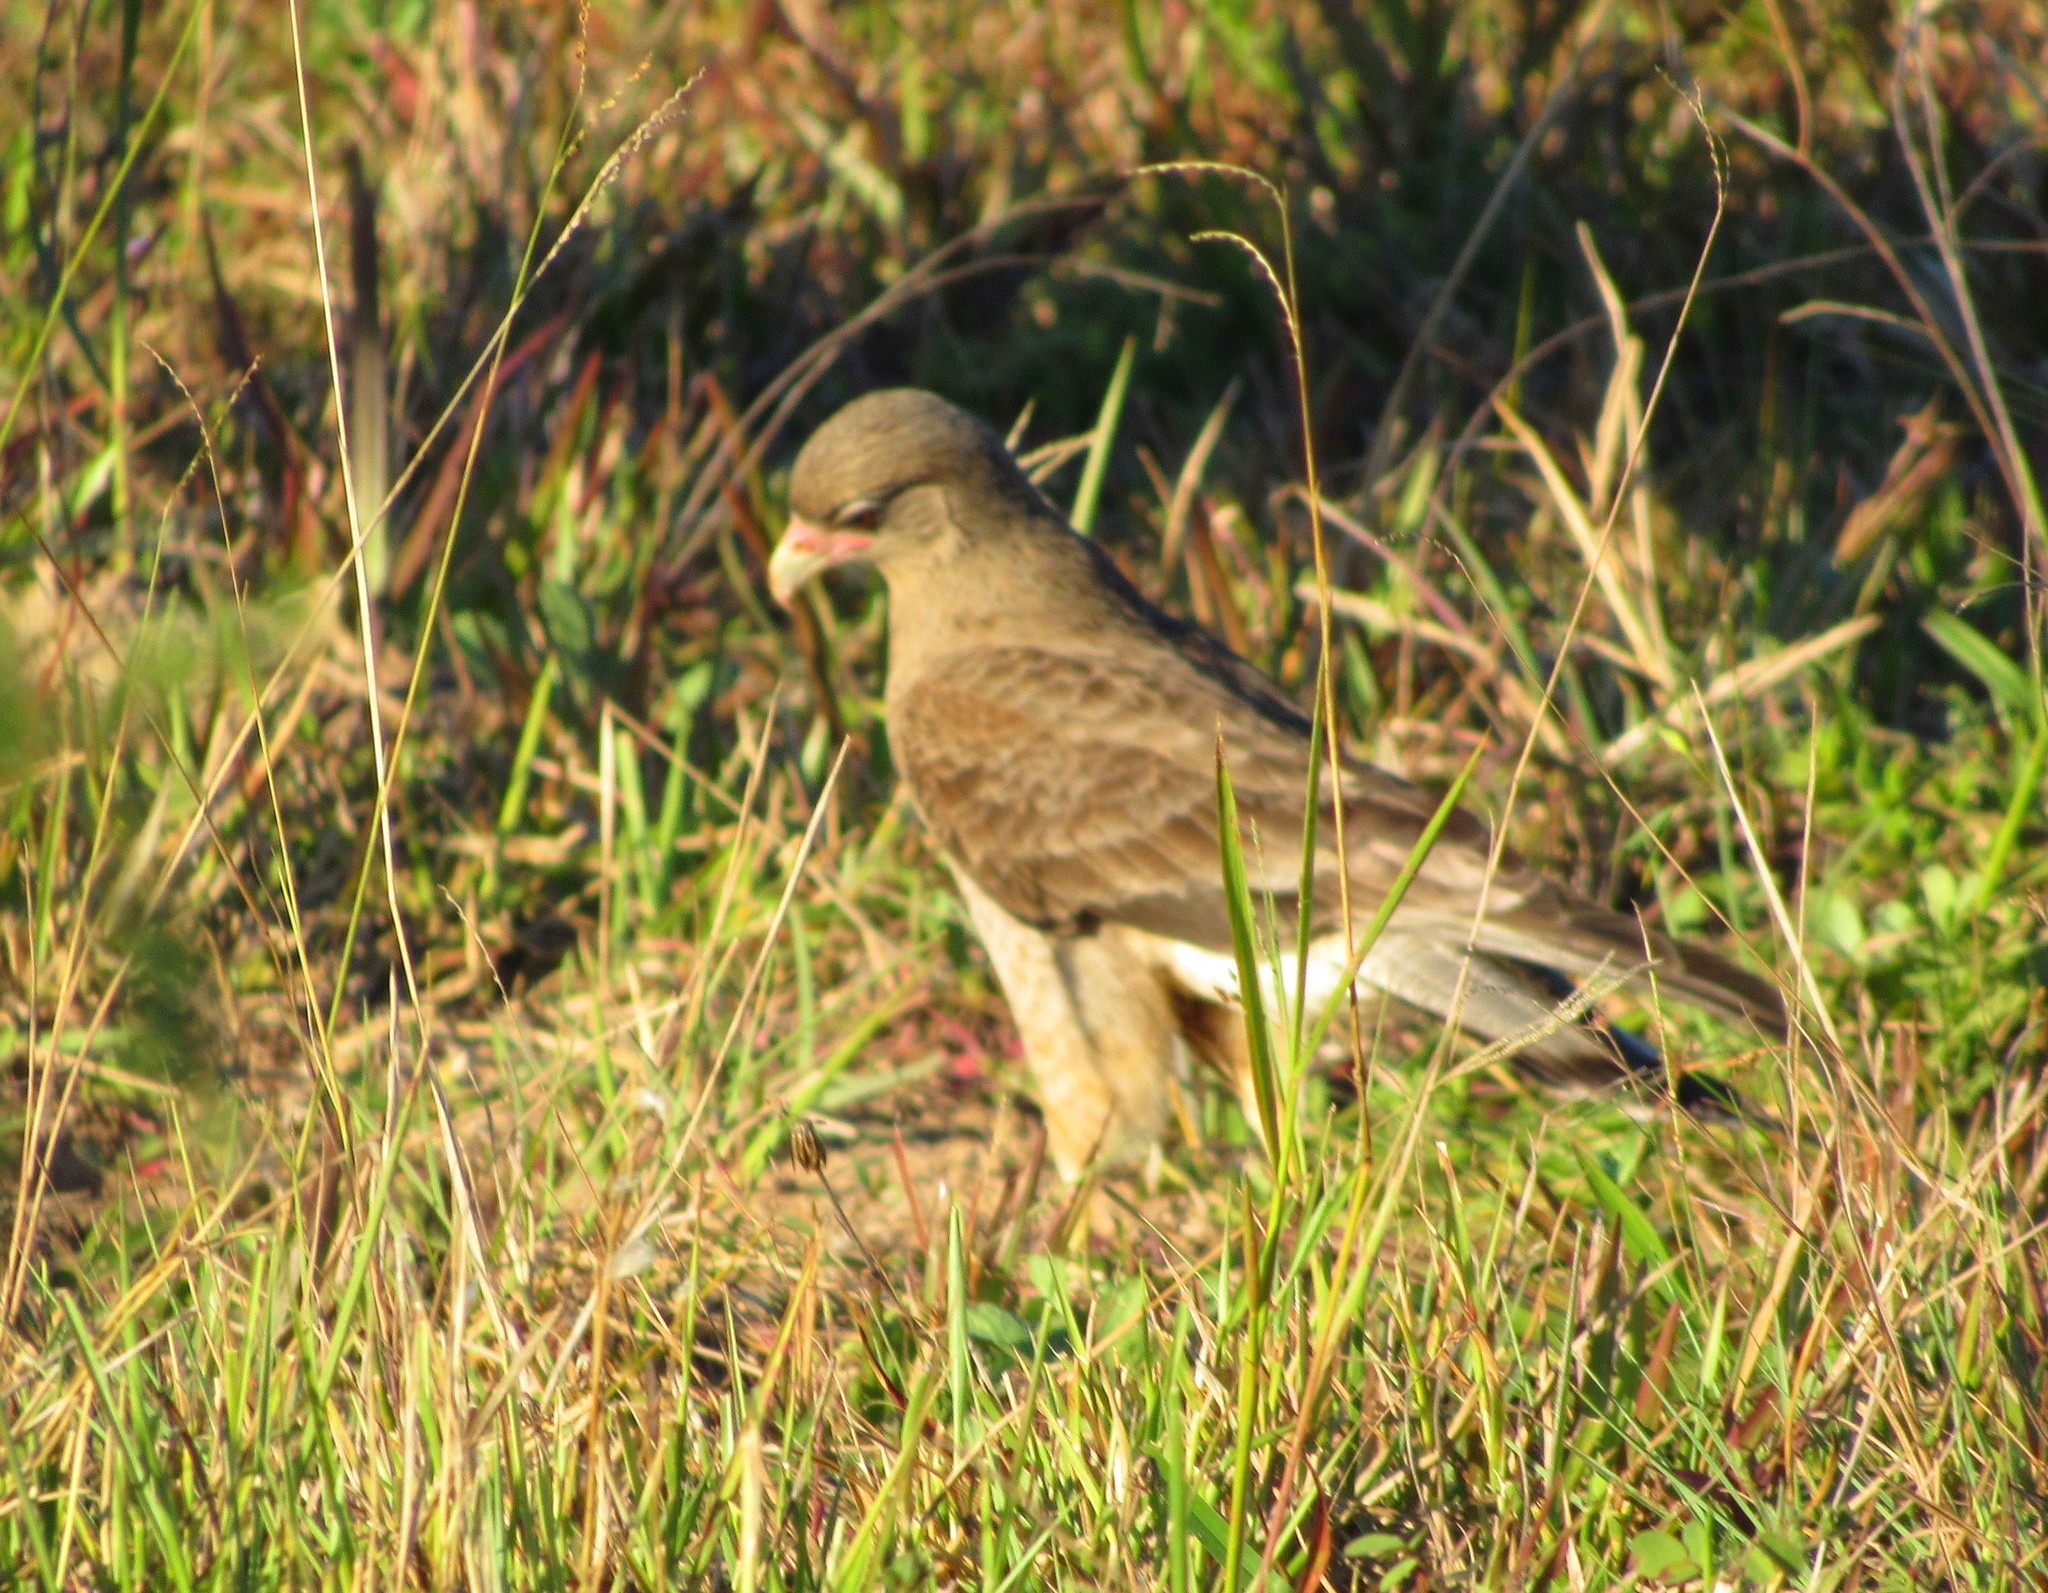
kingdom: Animalia
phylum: Chordata
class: Aves
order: Falconiformes
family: Falconidae
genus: Daptrius
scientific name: Daptrius
